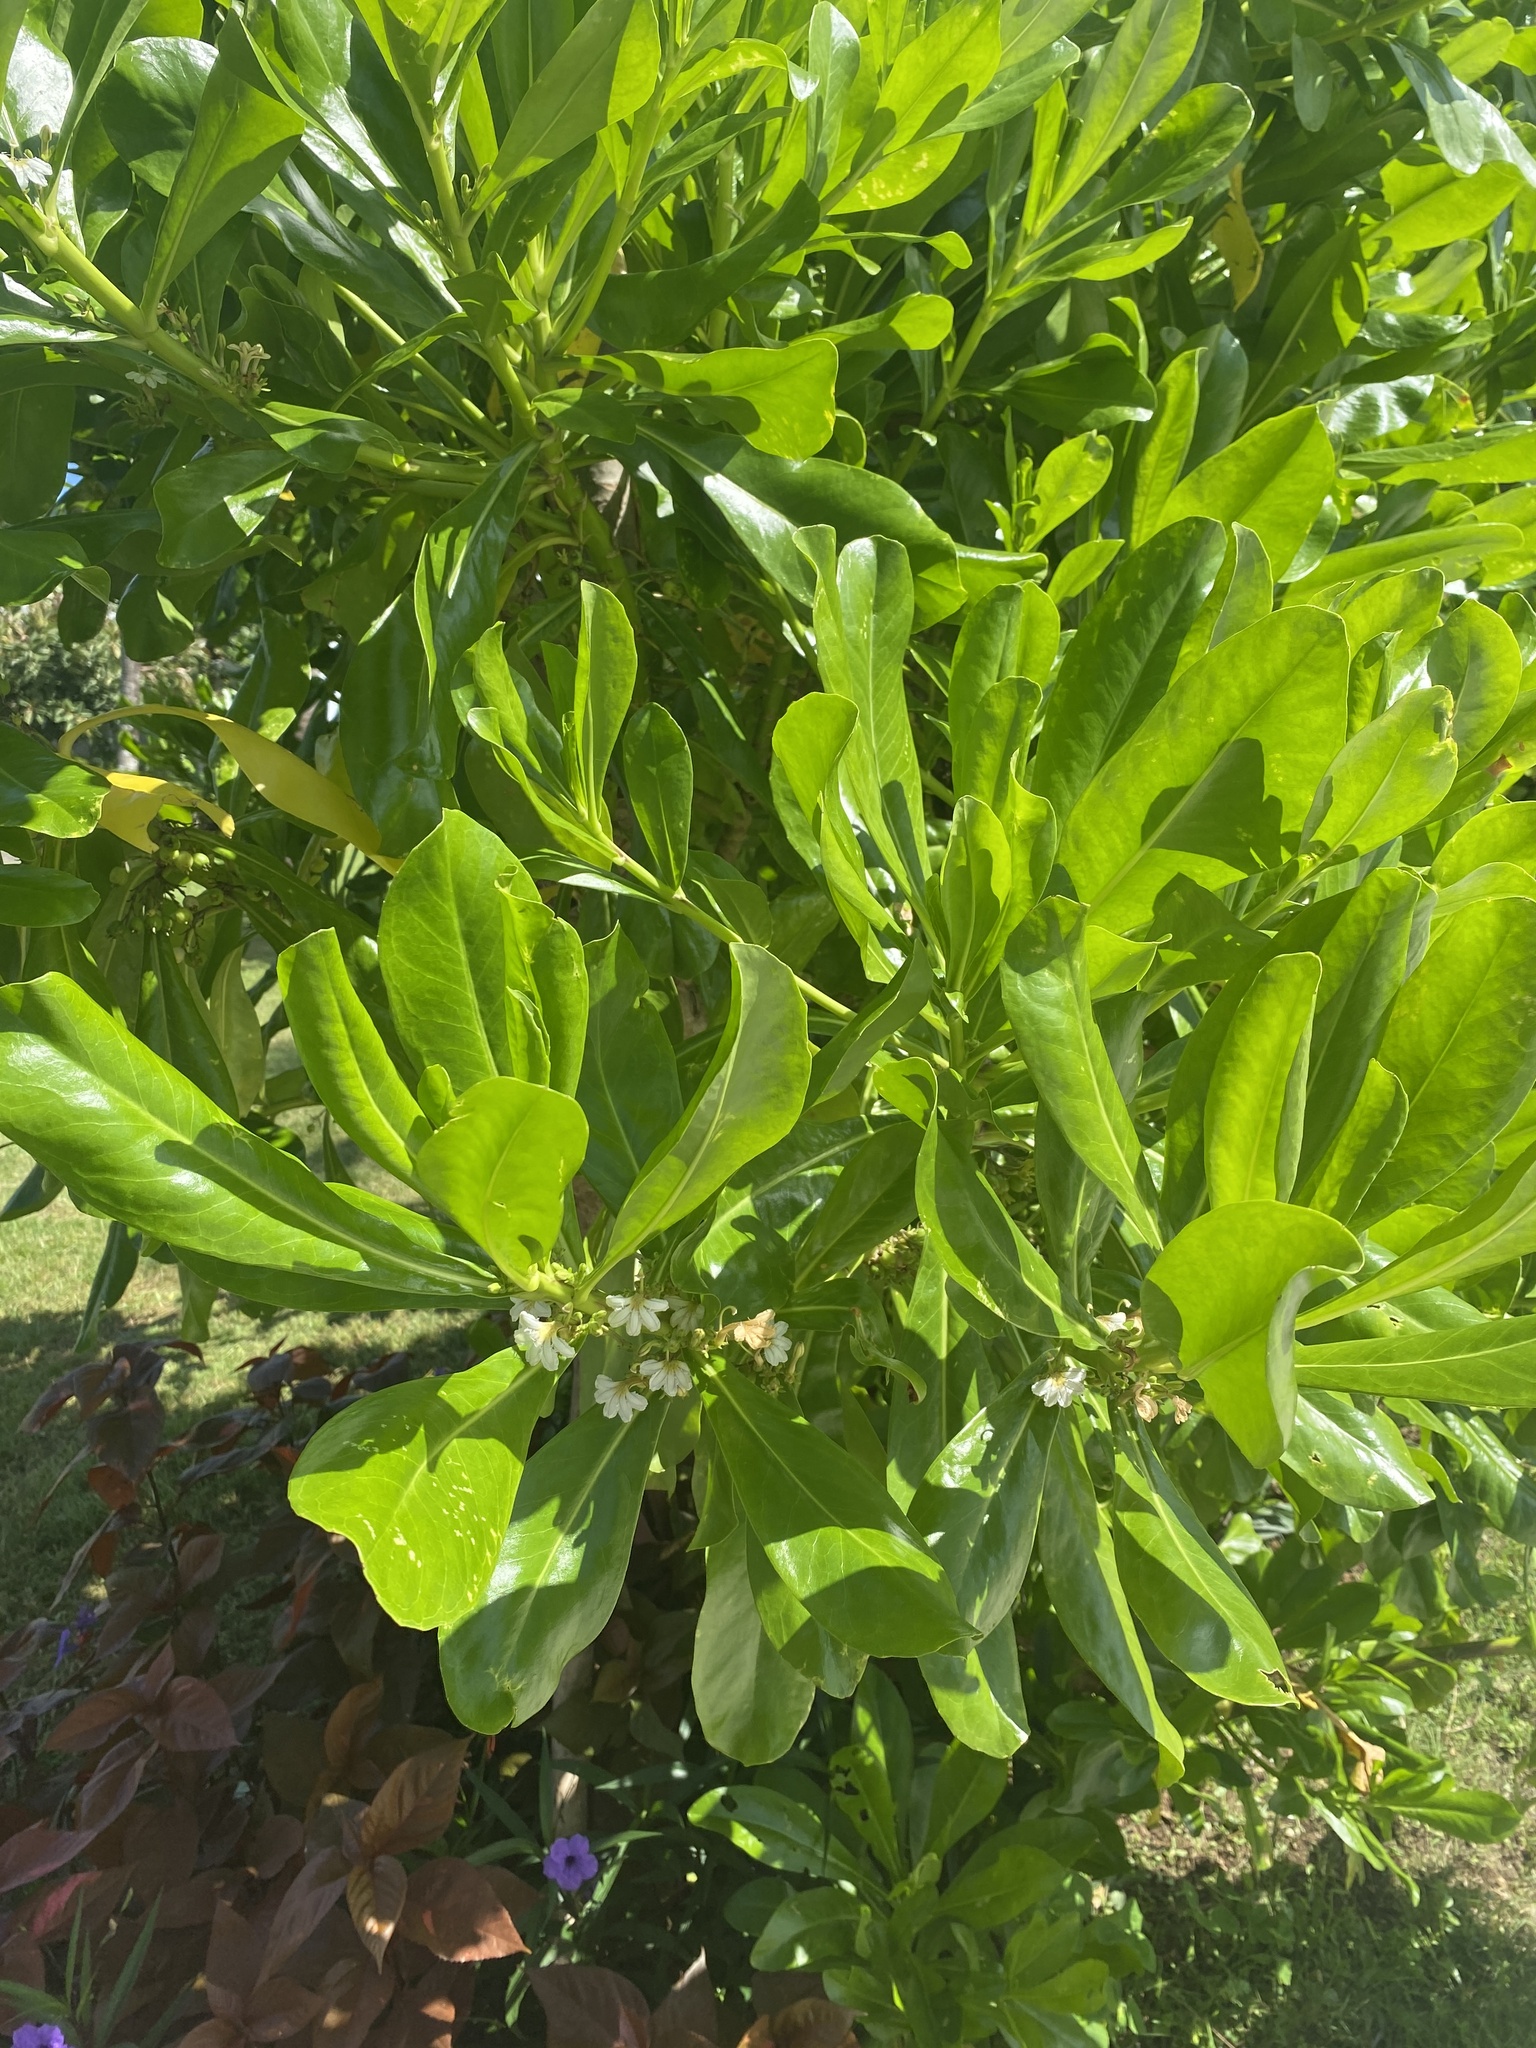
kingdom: Plantae
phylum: Tracheophyta
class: Magnoliopsida
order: Asterales
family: Goodeniaceae
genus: Scaevola
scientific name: Scaevola taccada
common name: Sea lettucetree
